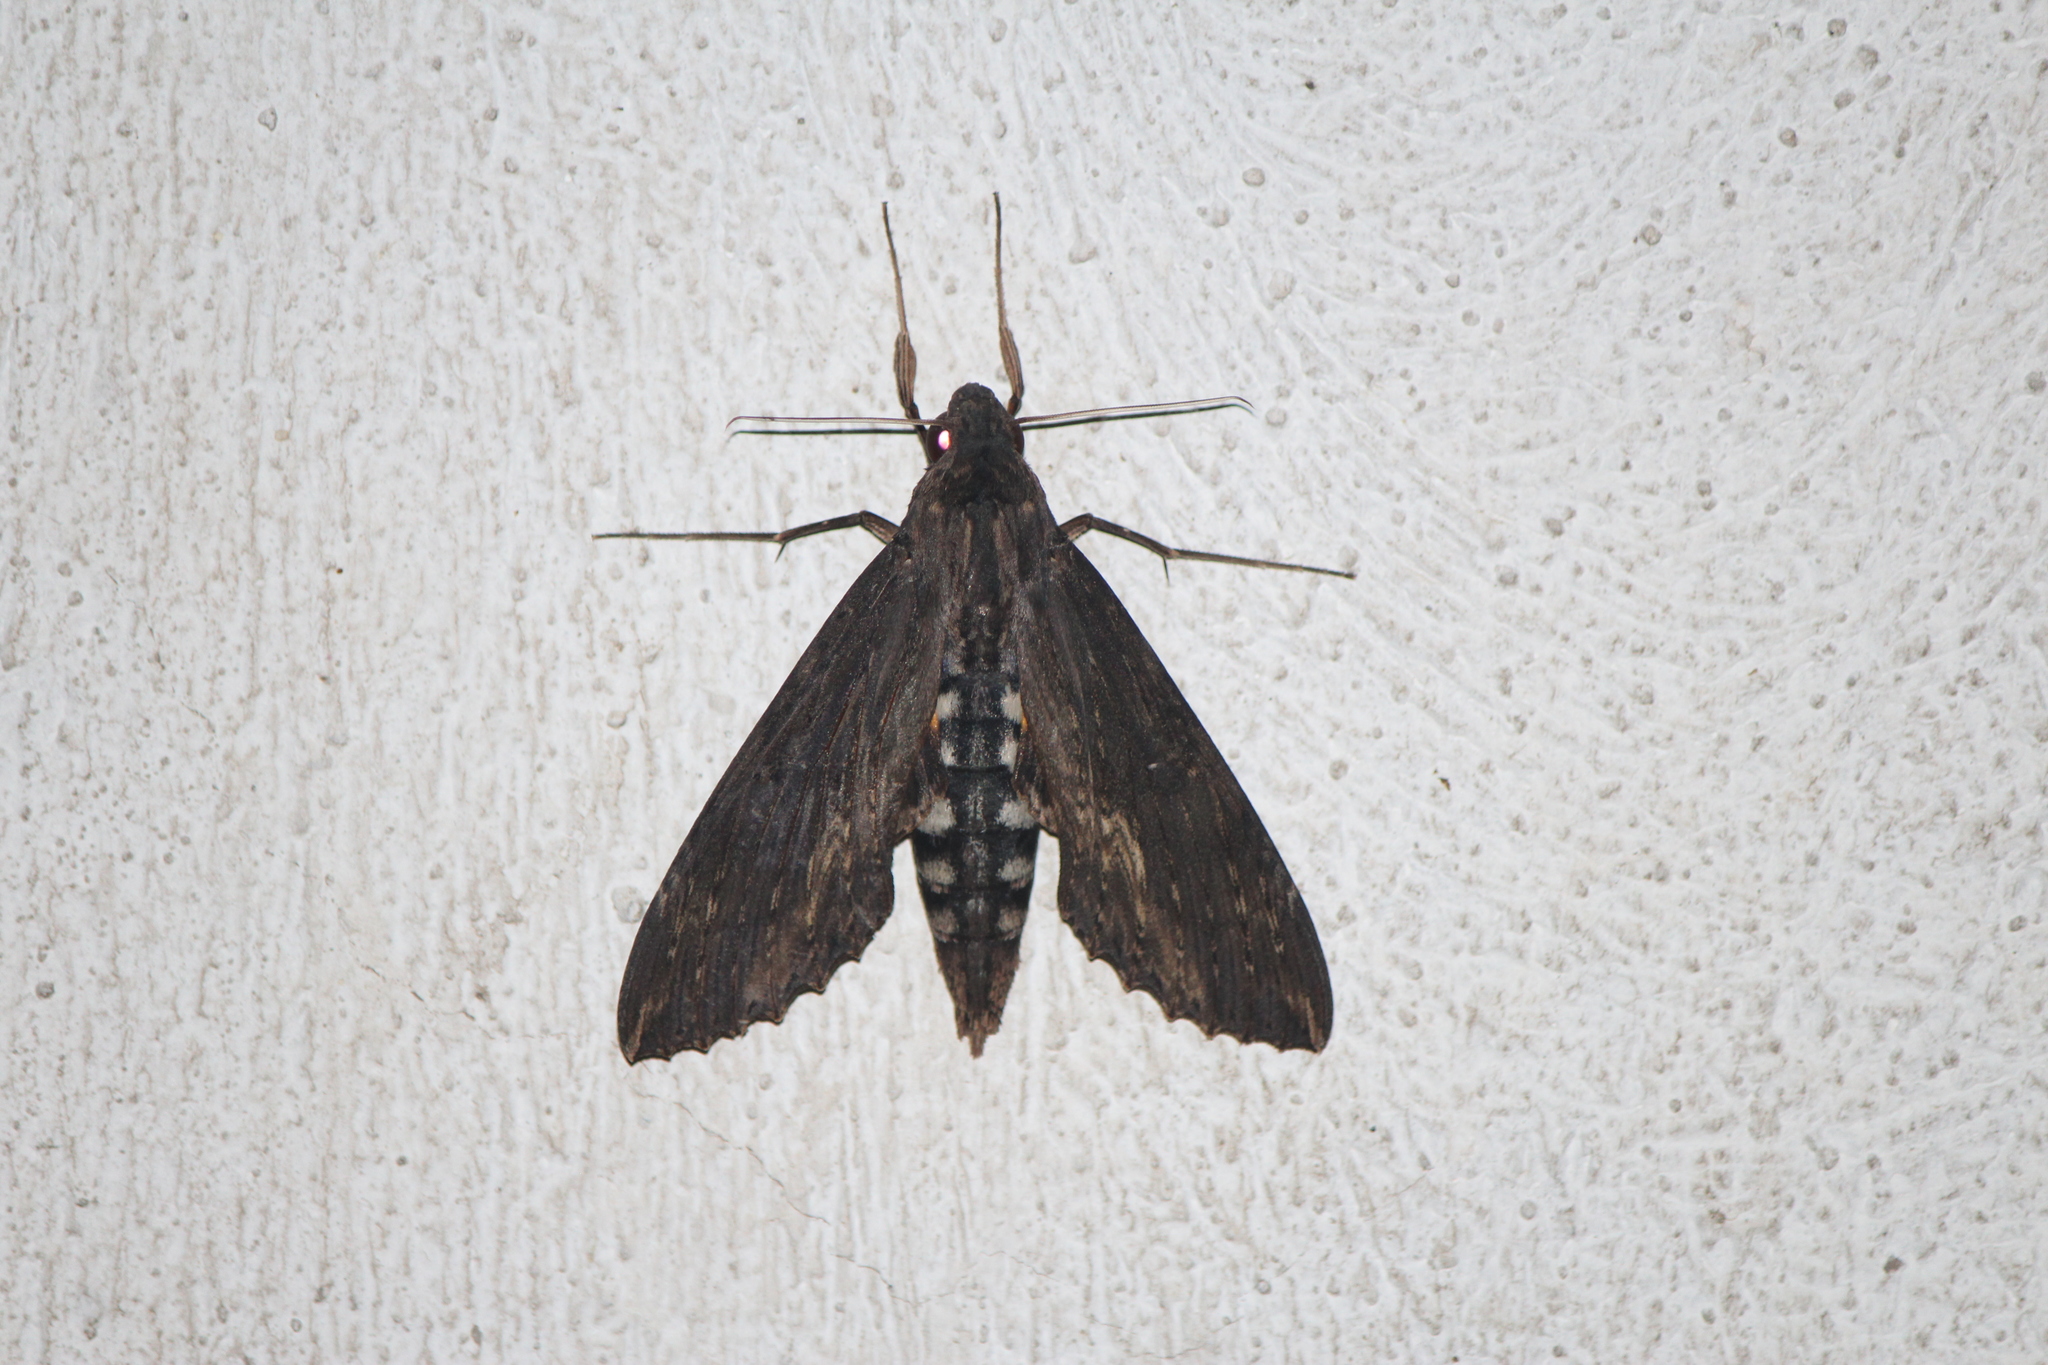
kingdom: Animalia
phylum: Arthropoda
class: Insecta
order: Lepidoptera
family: Sphingidae
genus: Erinnyis
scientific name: Erinnyis alope
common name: Alope sphinx
